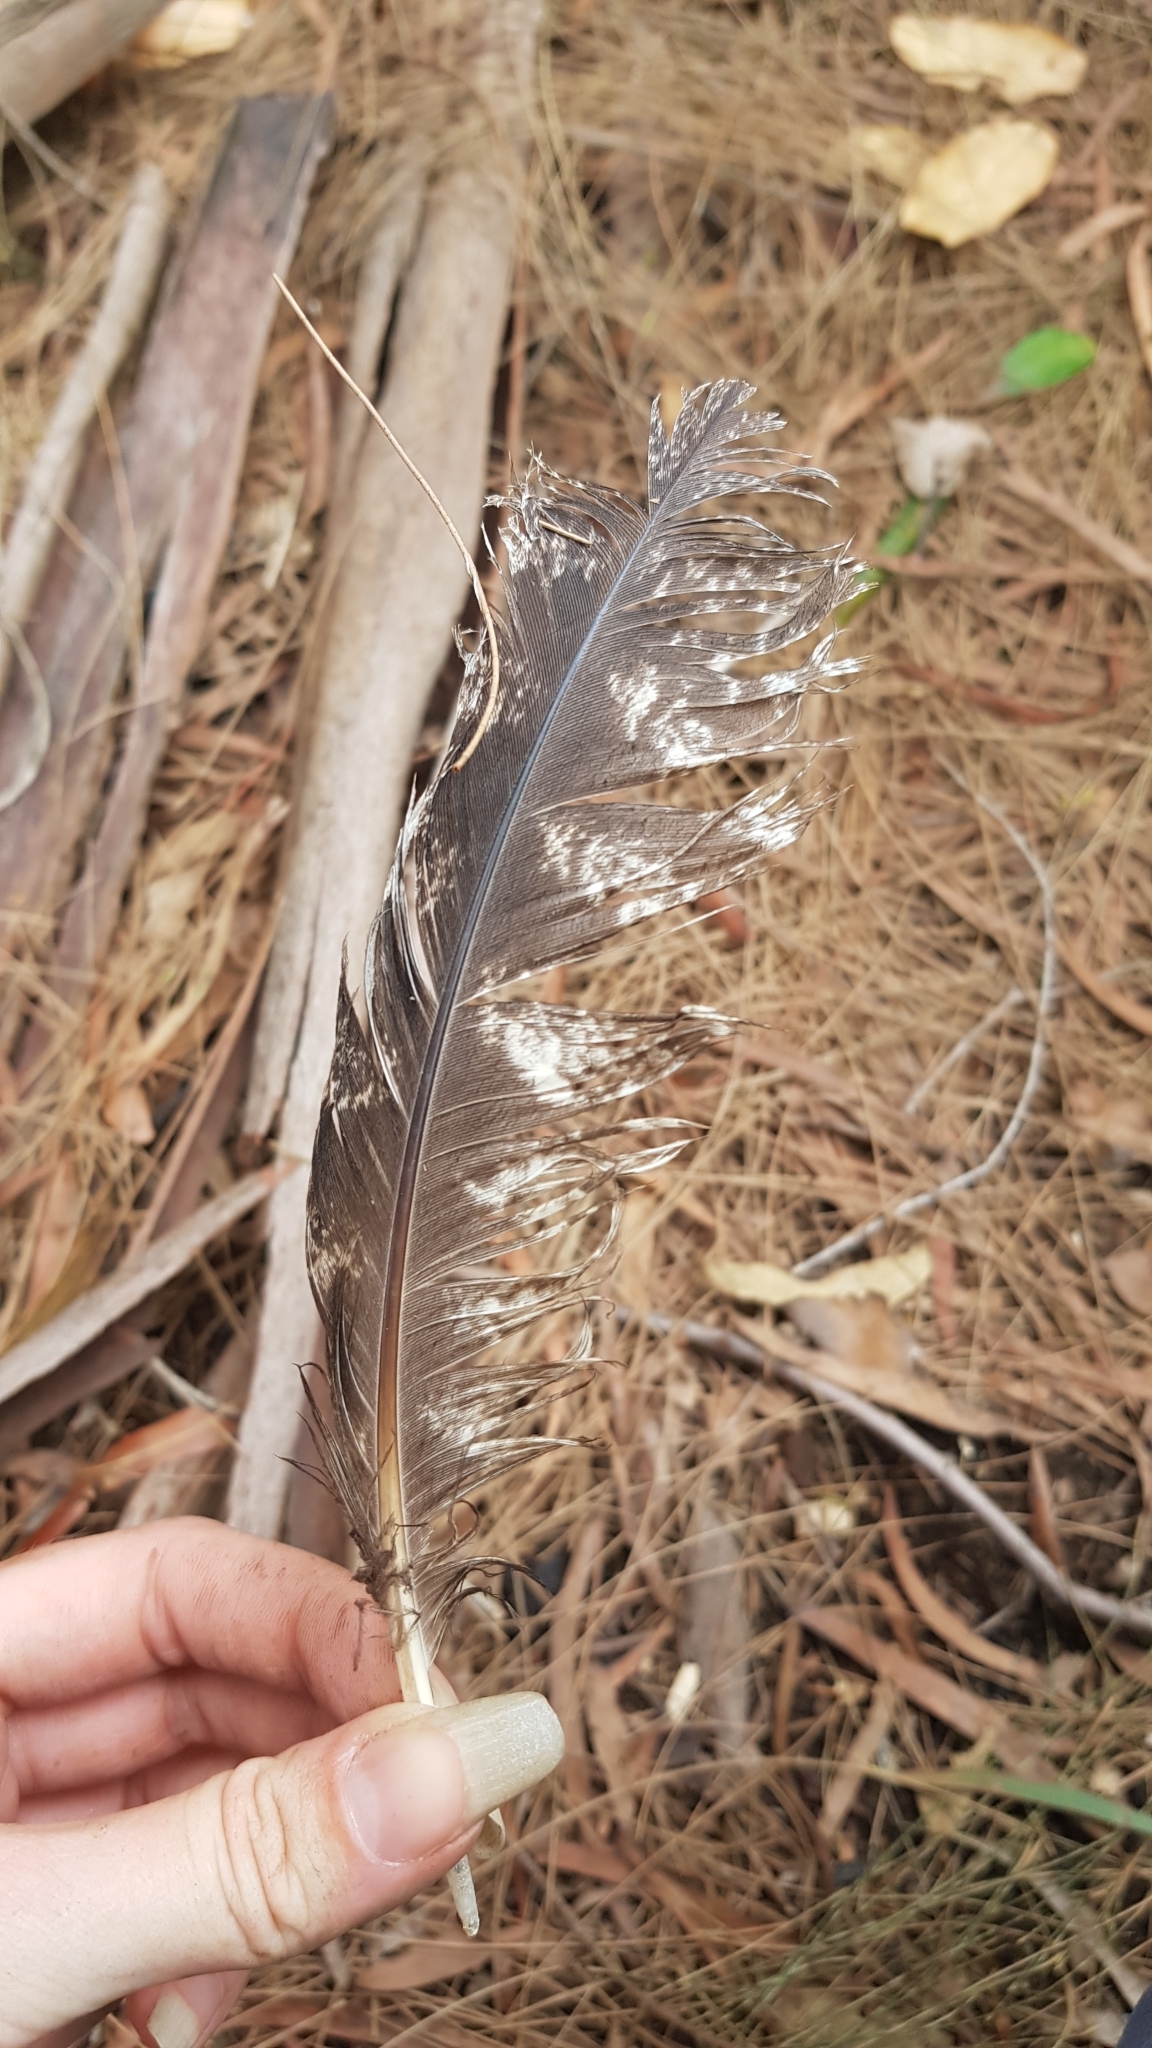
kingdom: Animalia
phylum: Chordata
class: Aves
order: Caprimulgiformes
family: Podargidae
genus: Podargus
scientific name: Podargus strigoides
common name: Tawny frogmouth
